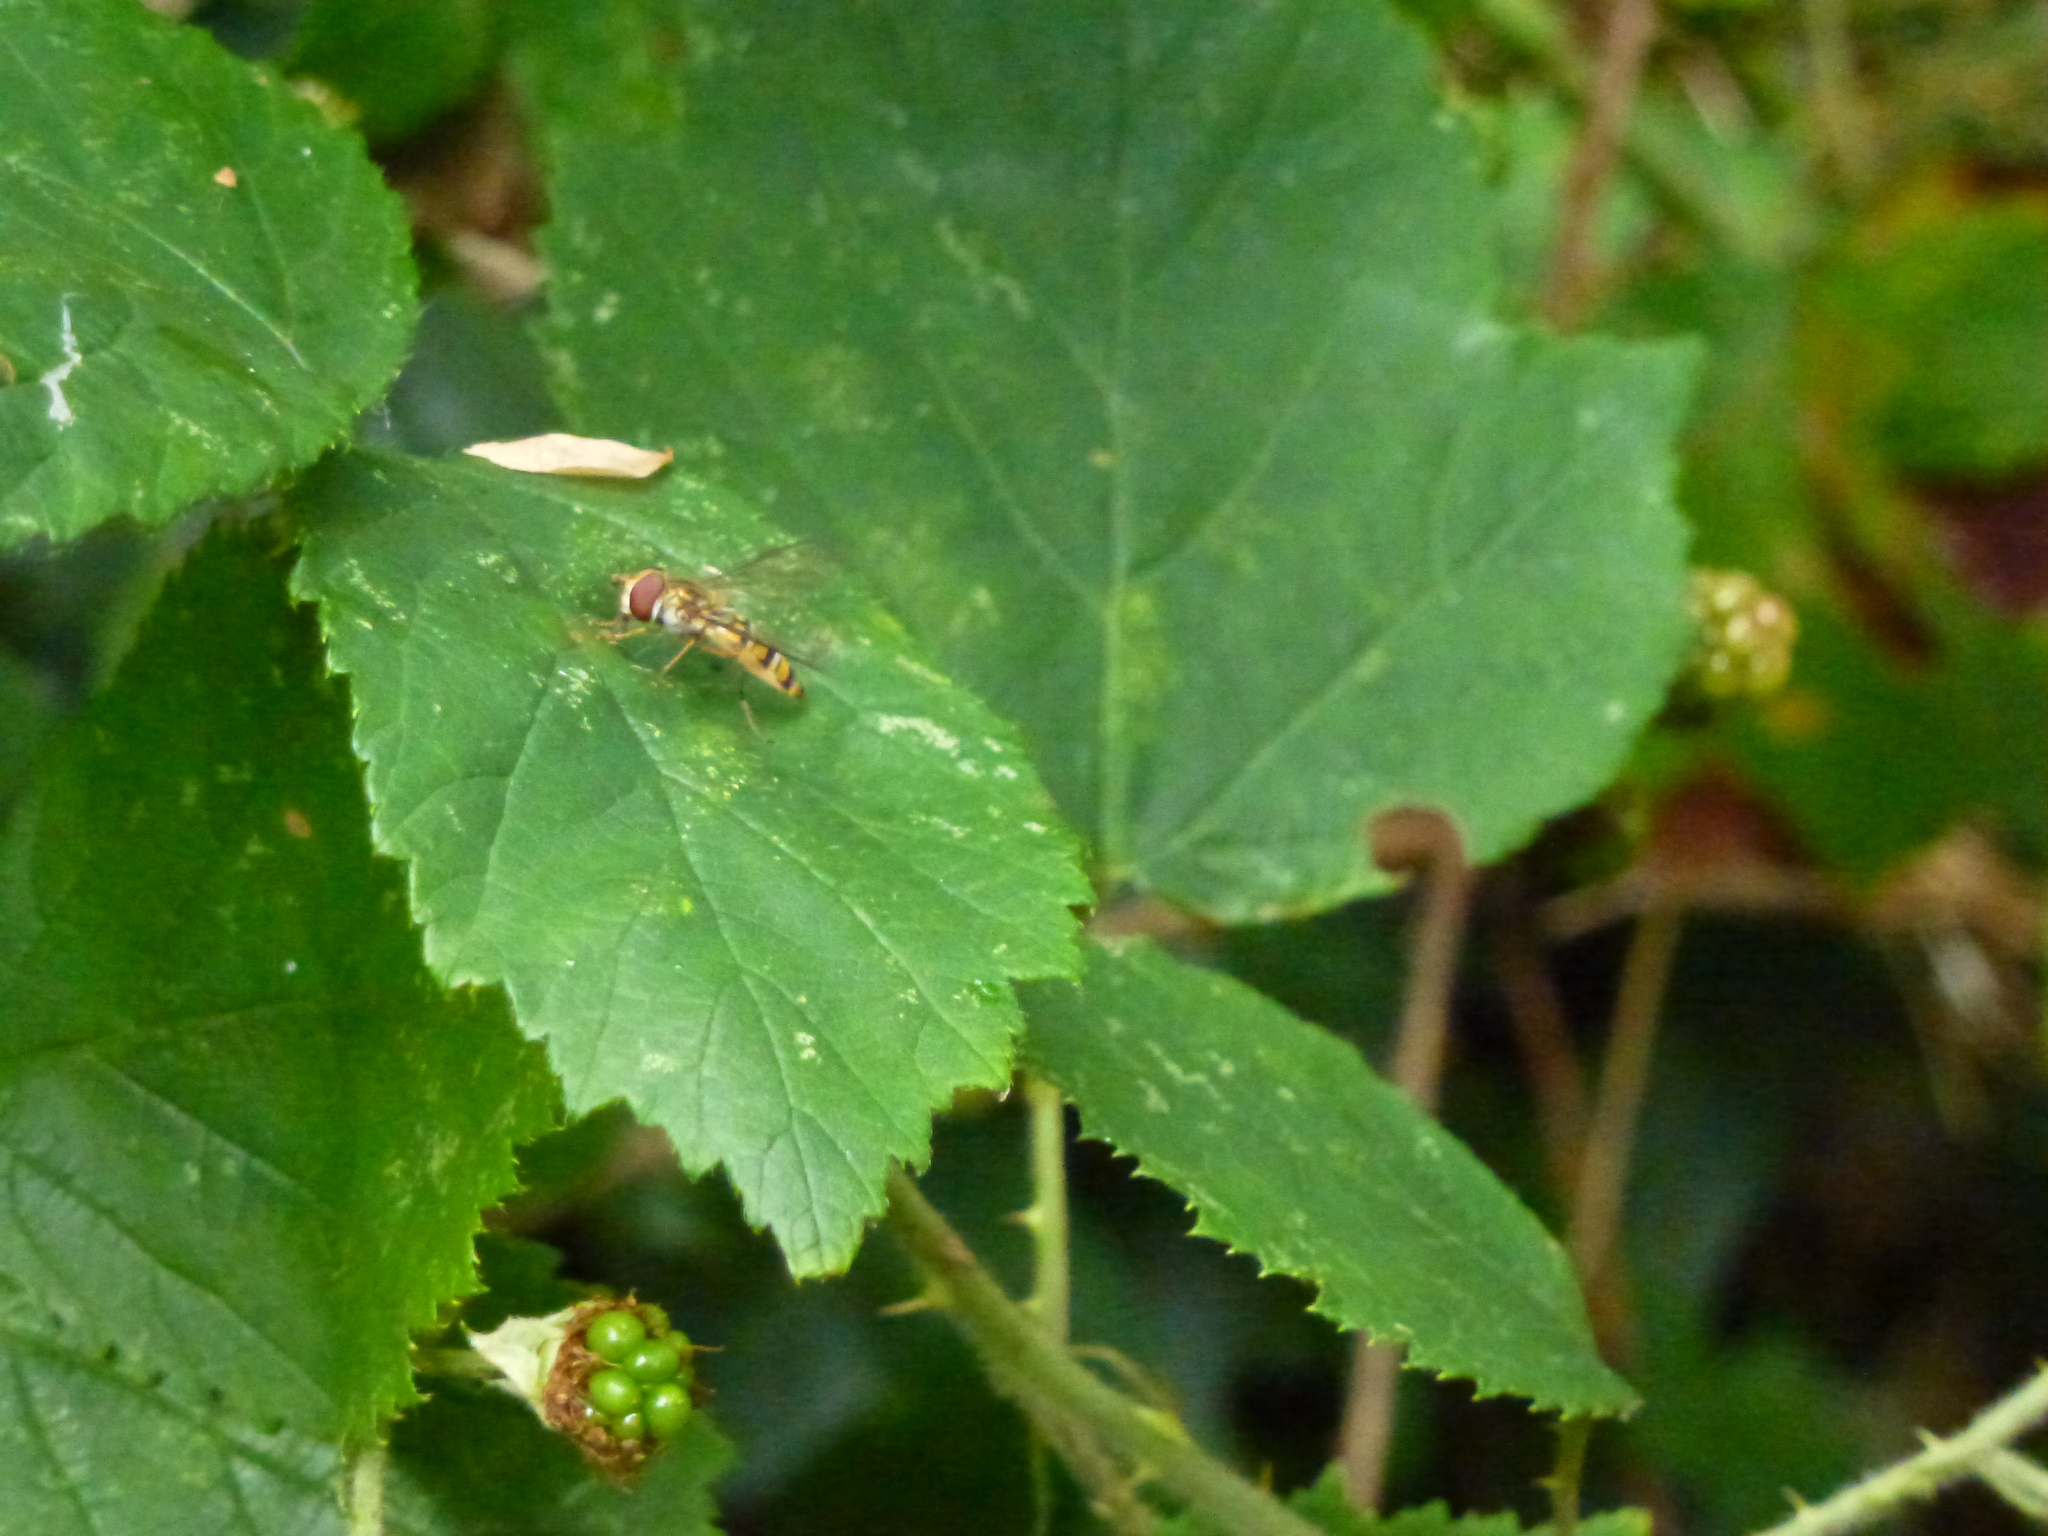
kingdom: Animalia
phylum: Arthropoda
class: Insecta
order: Diptera
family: Syrphidae
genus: Episyrphus
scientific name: Episyrphus balteatus
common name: Marmalade hoverfly
